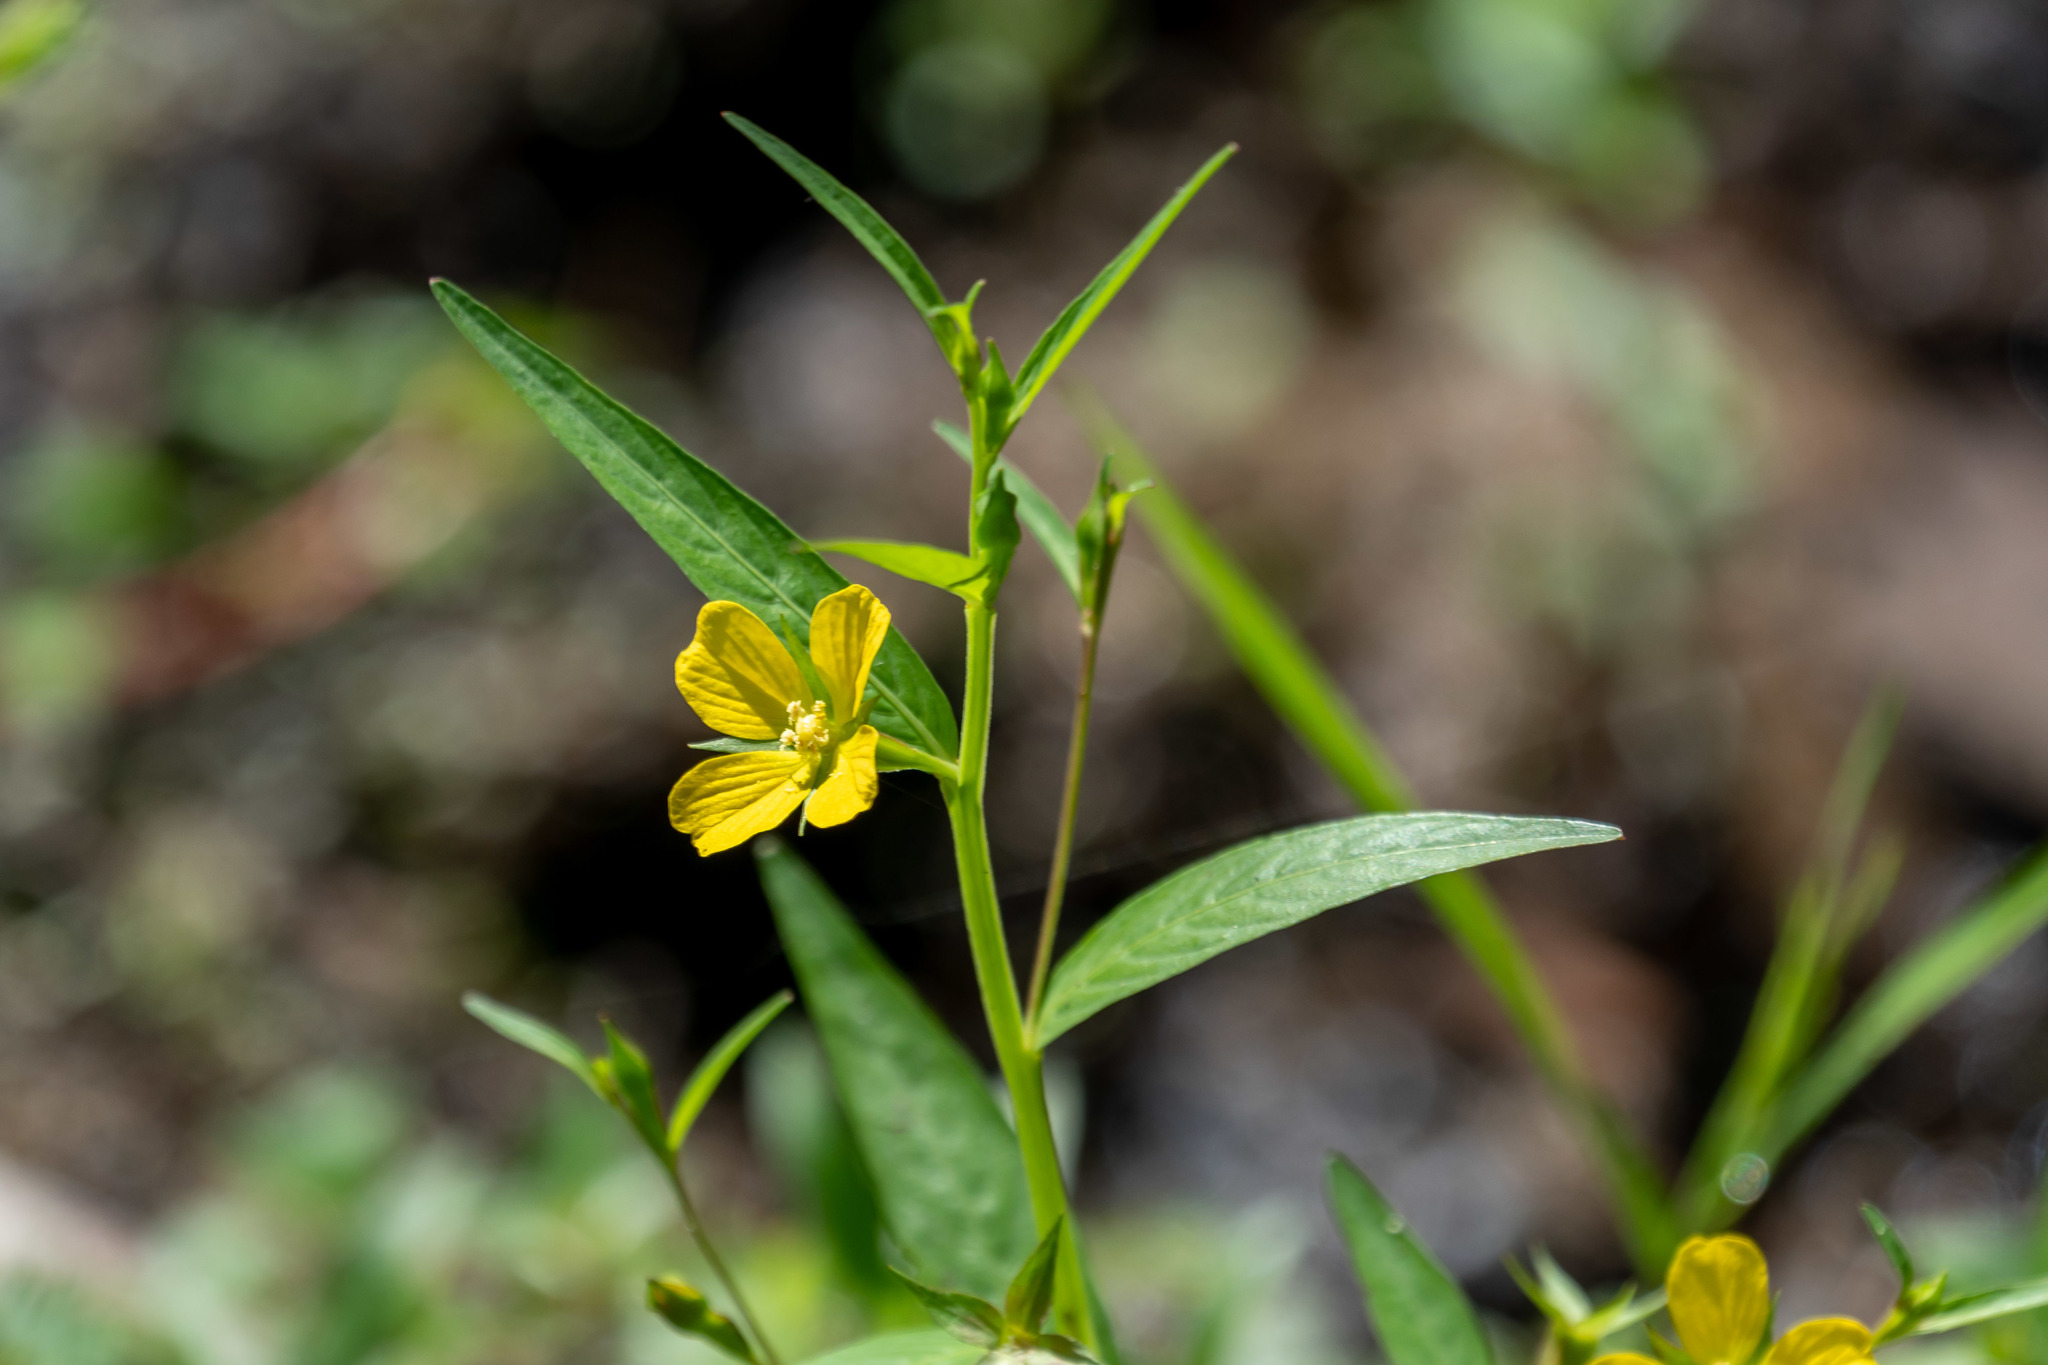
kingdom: Plantae
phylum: Tracheophyta
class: Magnoliopsida
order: Myrtales
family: Onagraceae
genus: Ludwigia
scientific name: Ludwigia decurrens
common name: Winged water-primrose
